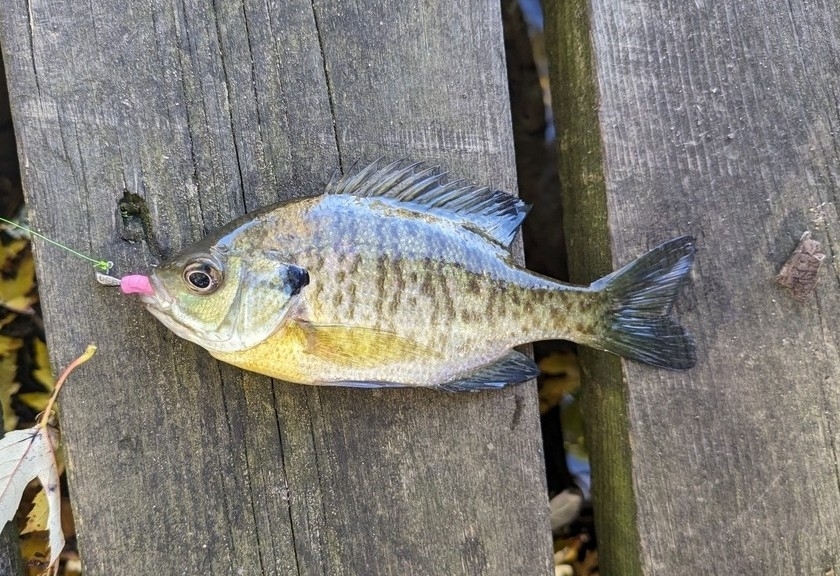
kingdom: Animalia
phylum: Chordata
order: Perciformes
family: Centrarchidae
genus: Lepomis
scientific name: Lepomis macrochirus
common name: Bluegill
